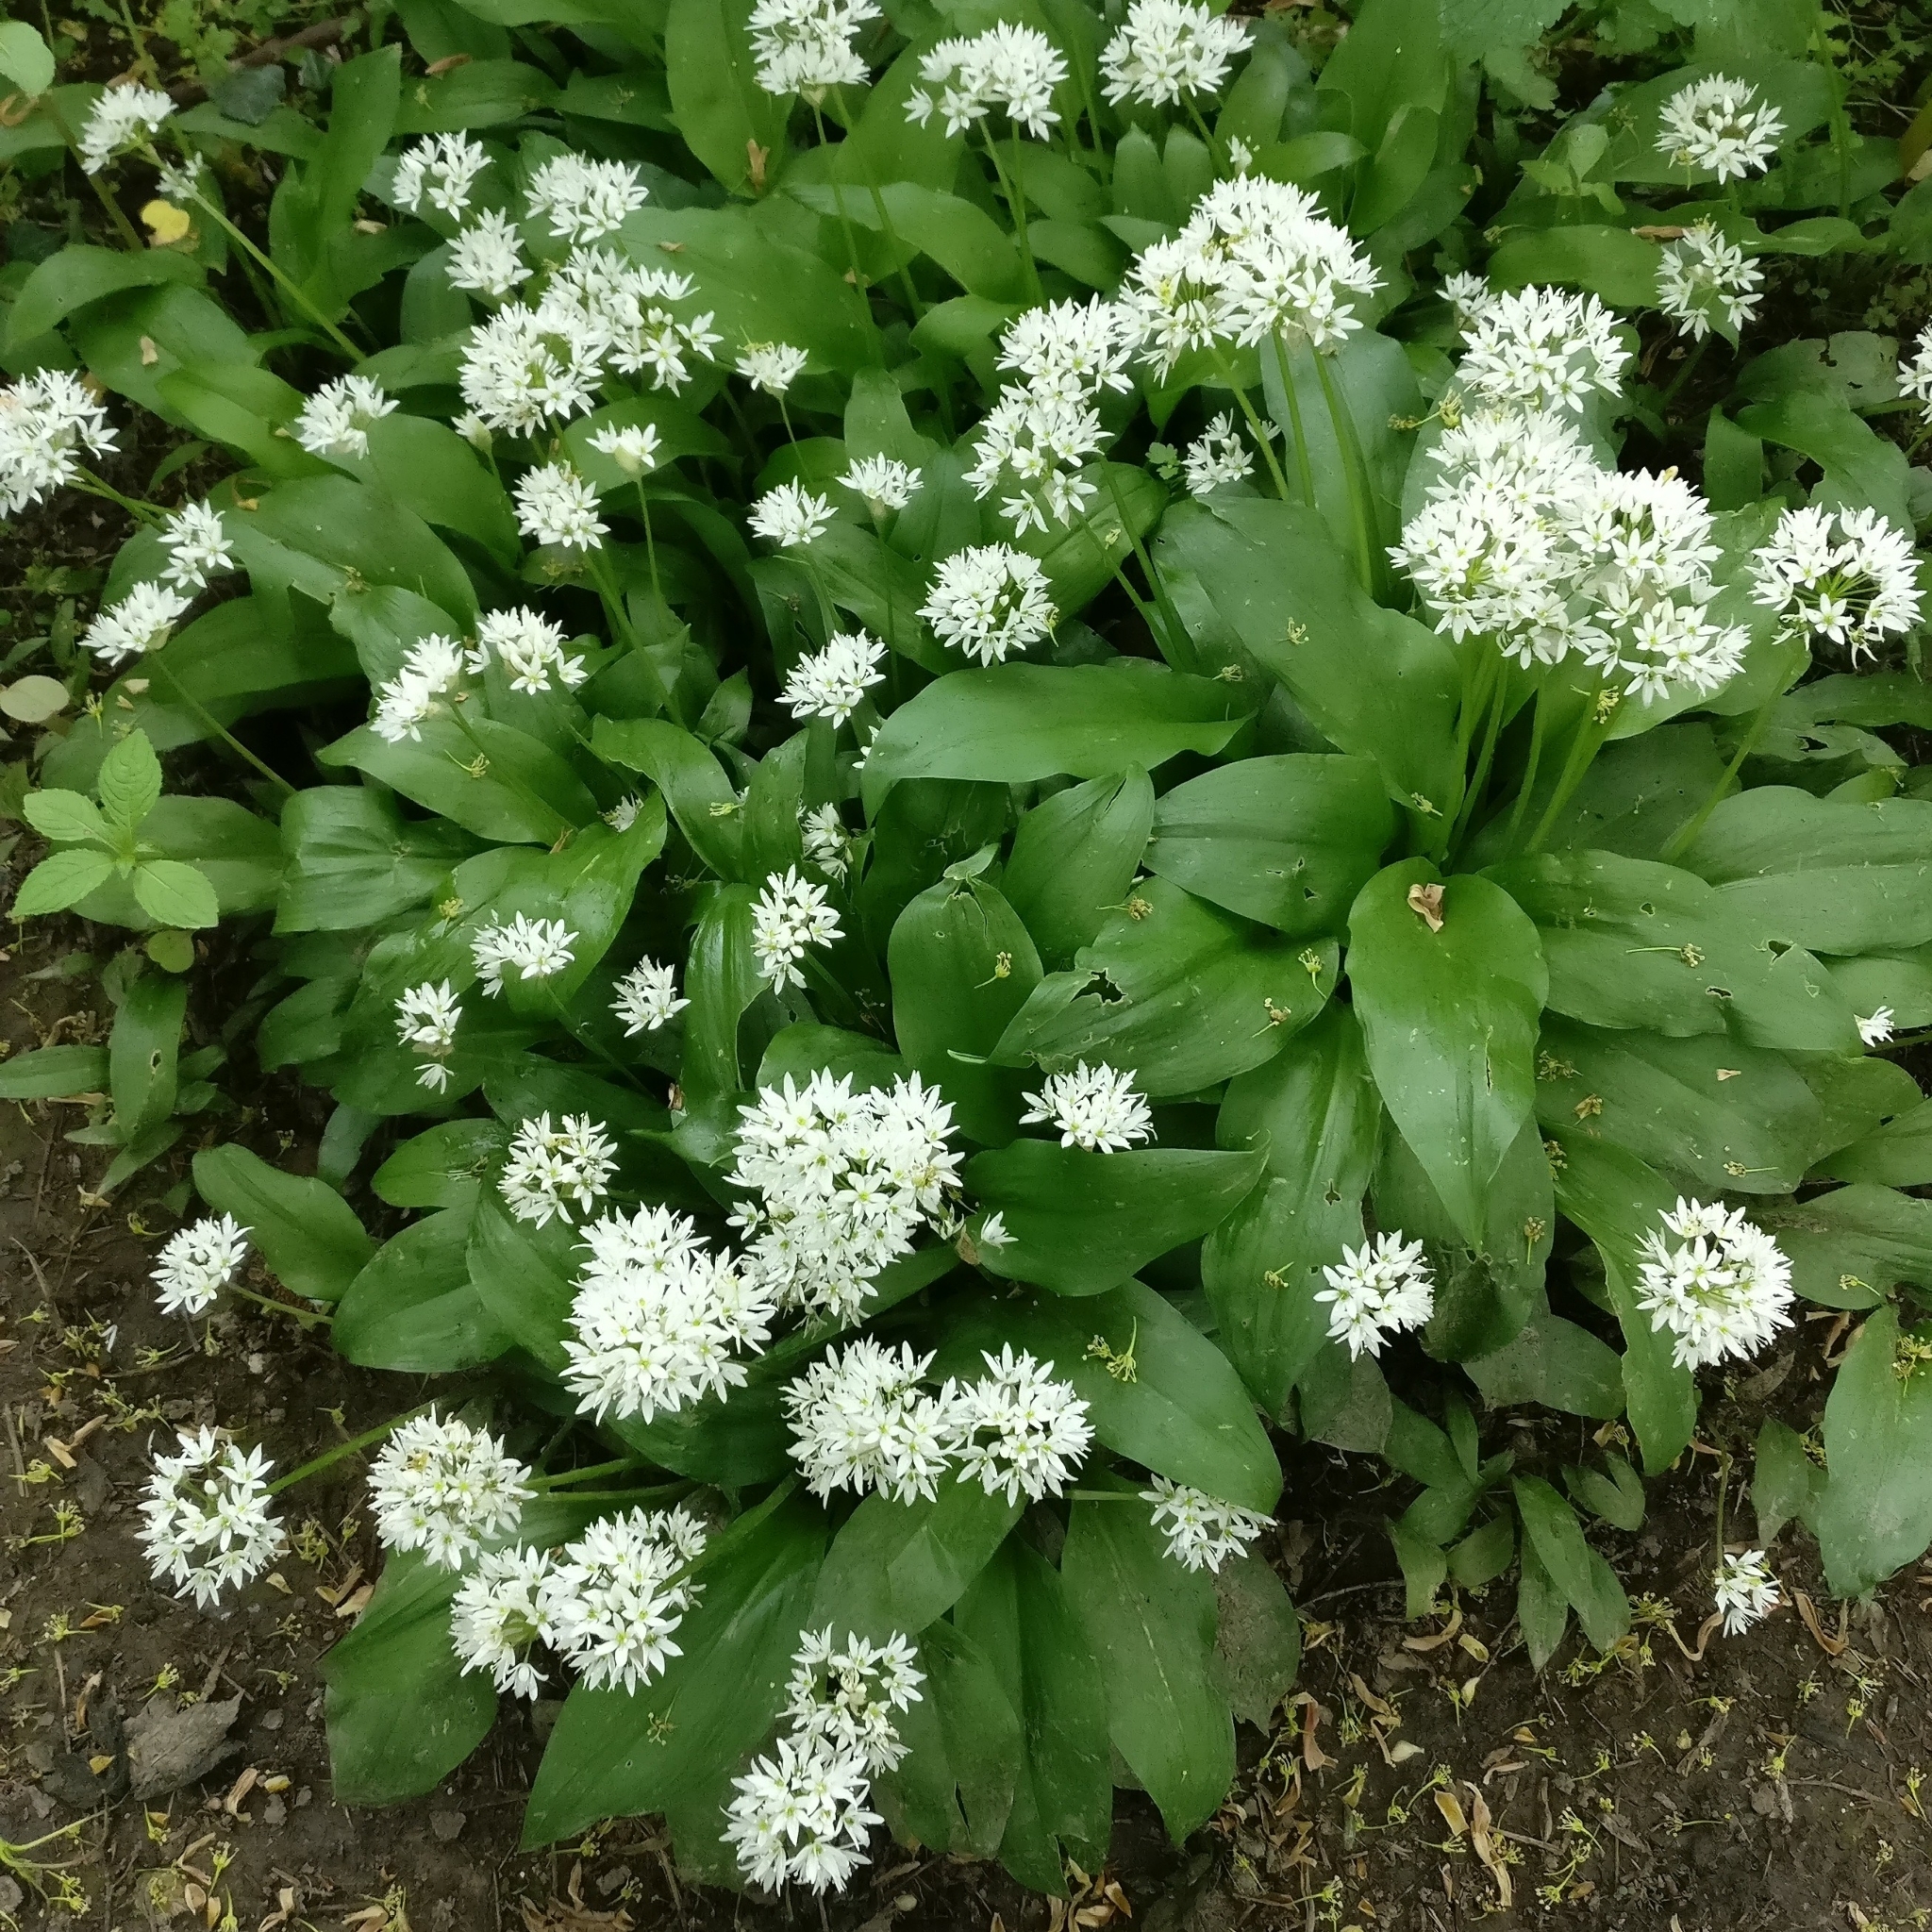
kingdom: Plantae
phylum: Tracheophyta
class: Liliopsida
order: Asparagales
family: Amaryllidaceae
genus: Allium
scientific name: Allium ursinum
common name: Ramsons
